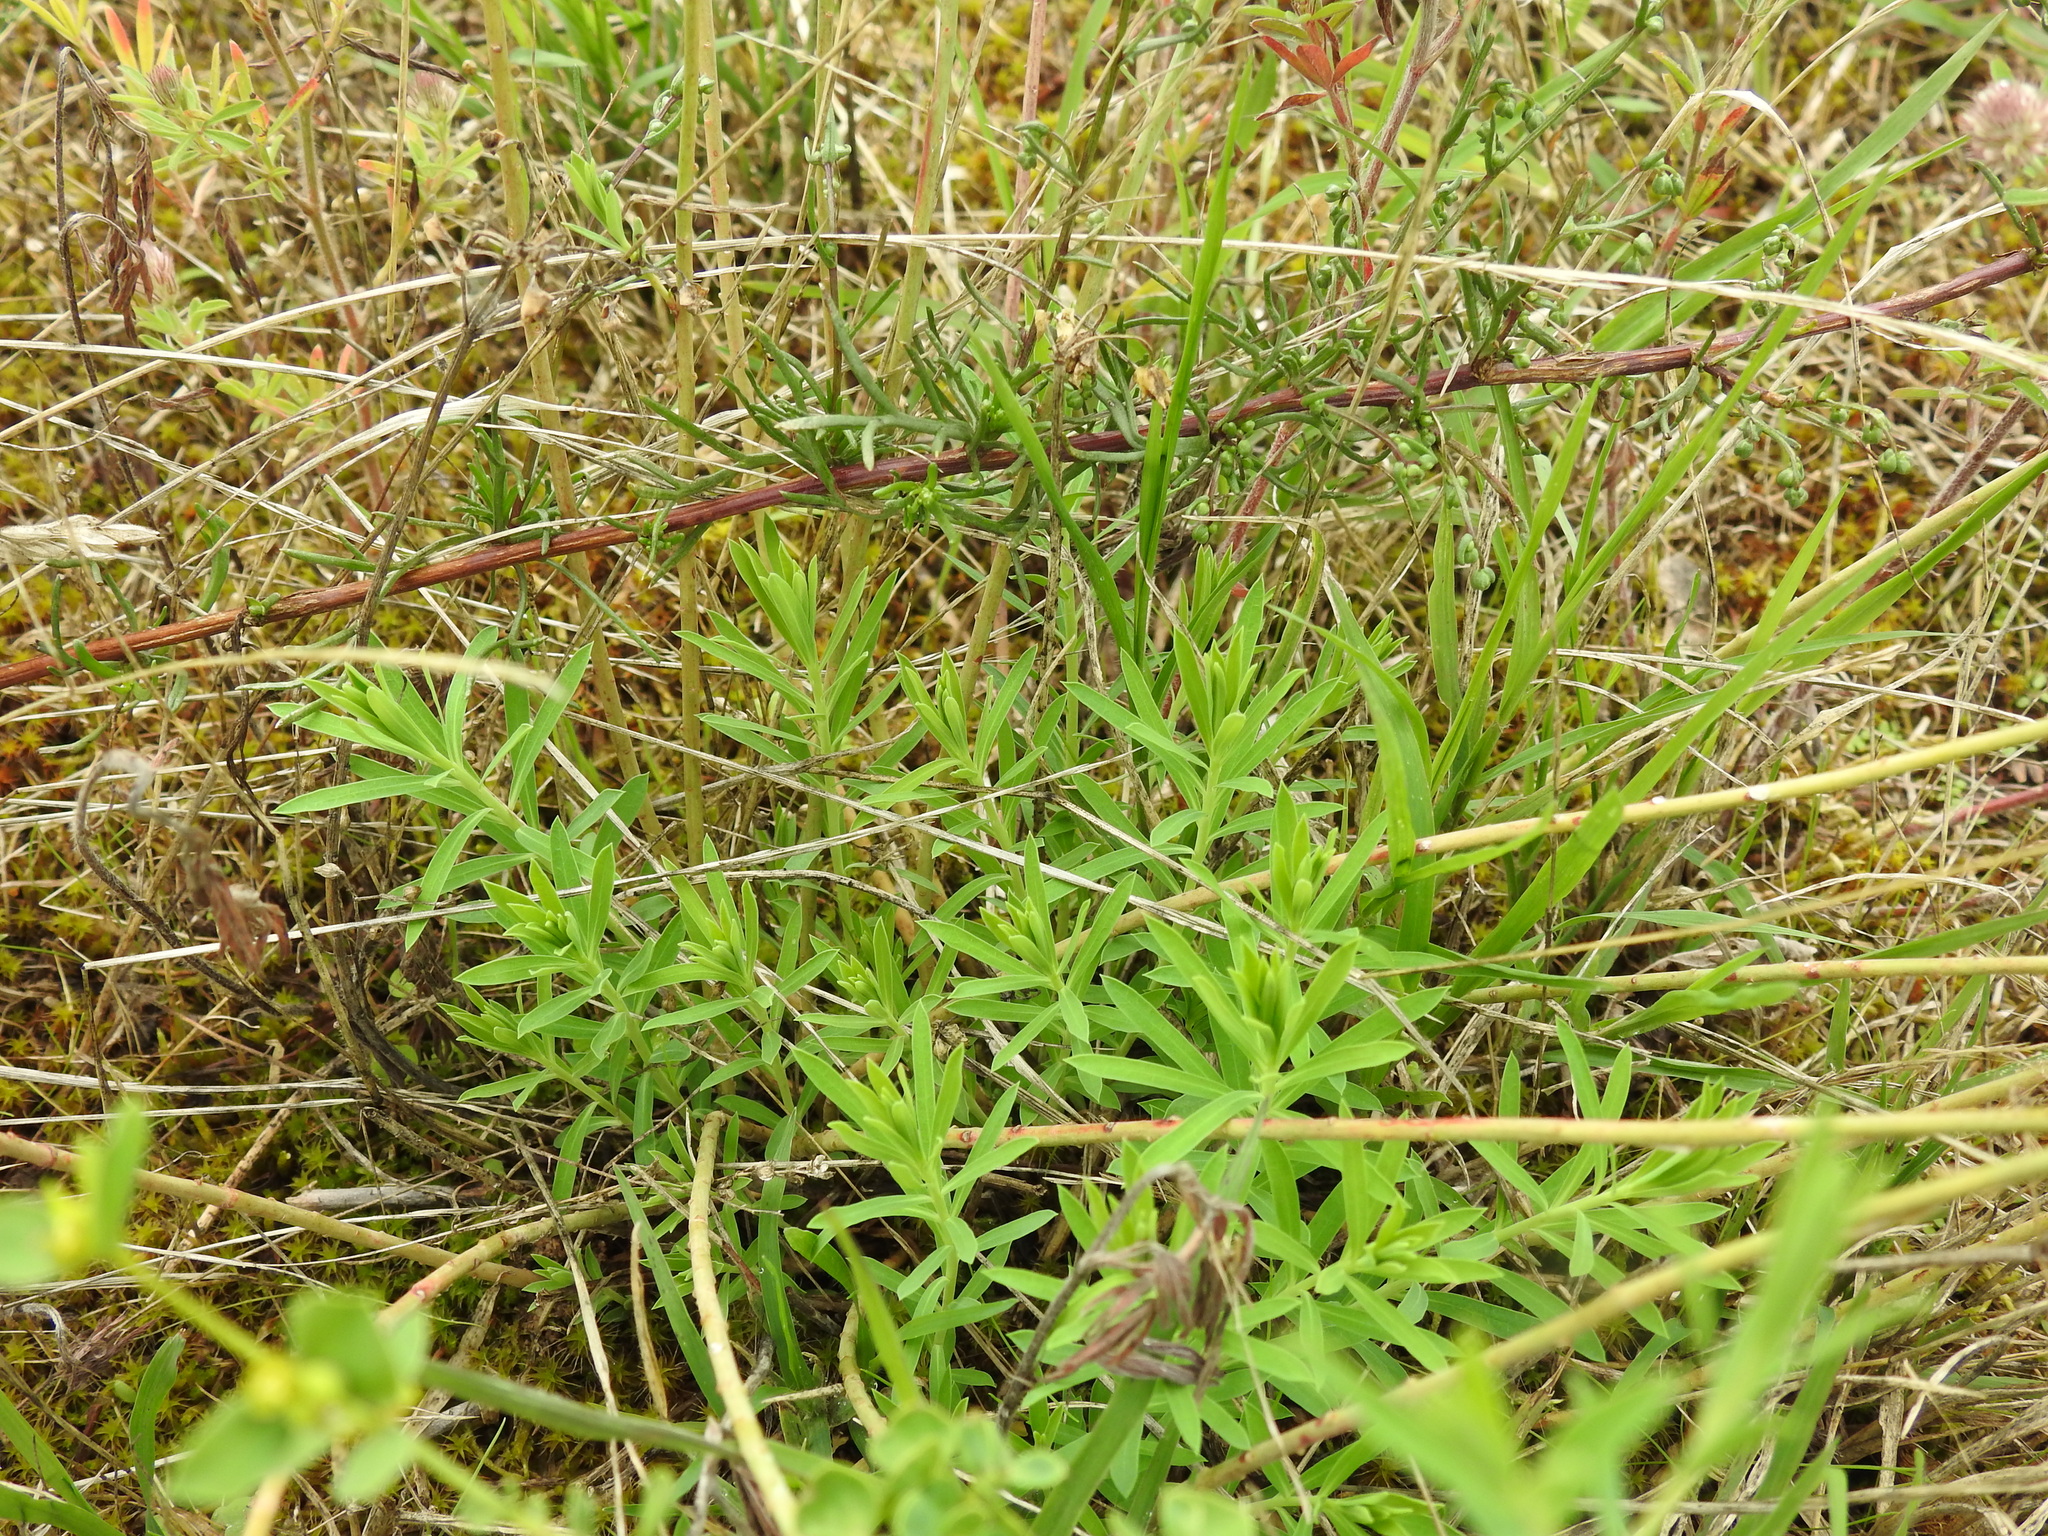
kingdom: Plantae
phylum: Tracheophyta
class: Magnoliopsida
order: Malpighiales
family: Euphorbiaceae
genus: Euphorbia
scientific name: Euphorbia seguieriana
